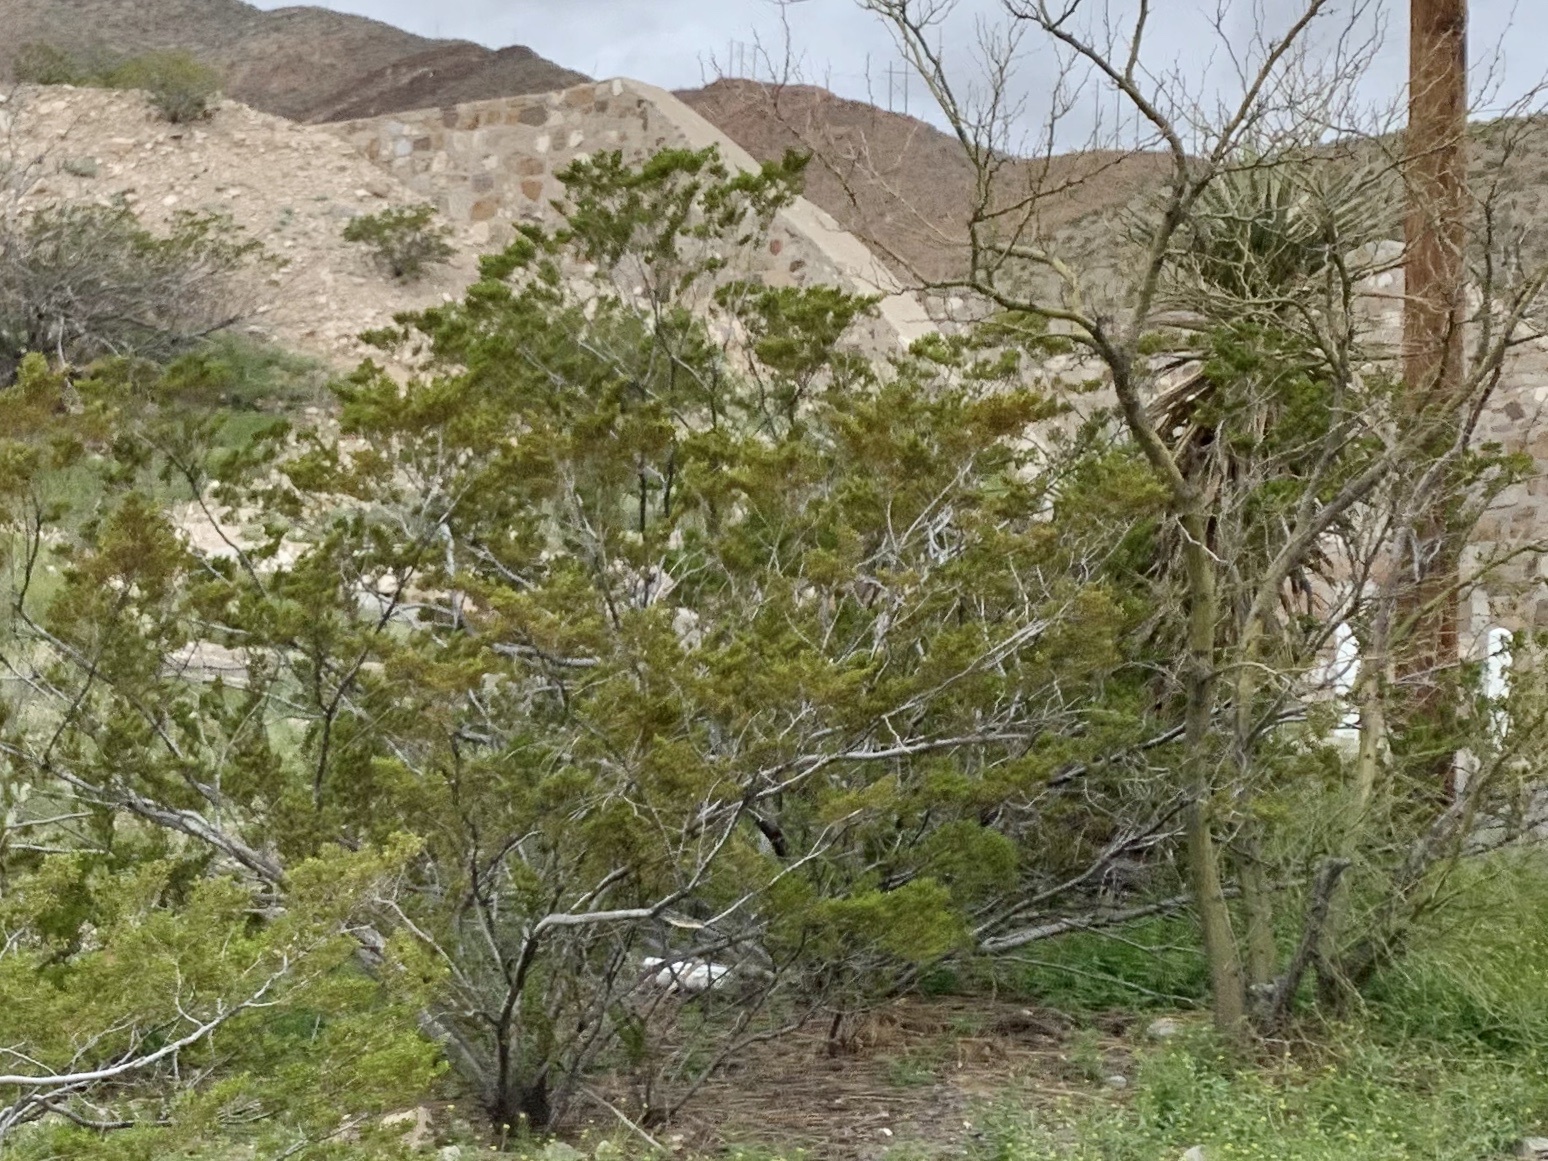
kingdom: Plantae
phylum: Tracheophyta
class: Magnoliopsida
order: Zygophyllales
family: Zygophyllaceae
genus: Larrea
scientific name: Larrea tridentata
